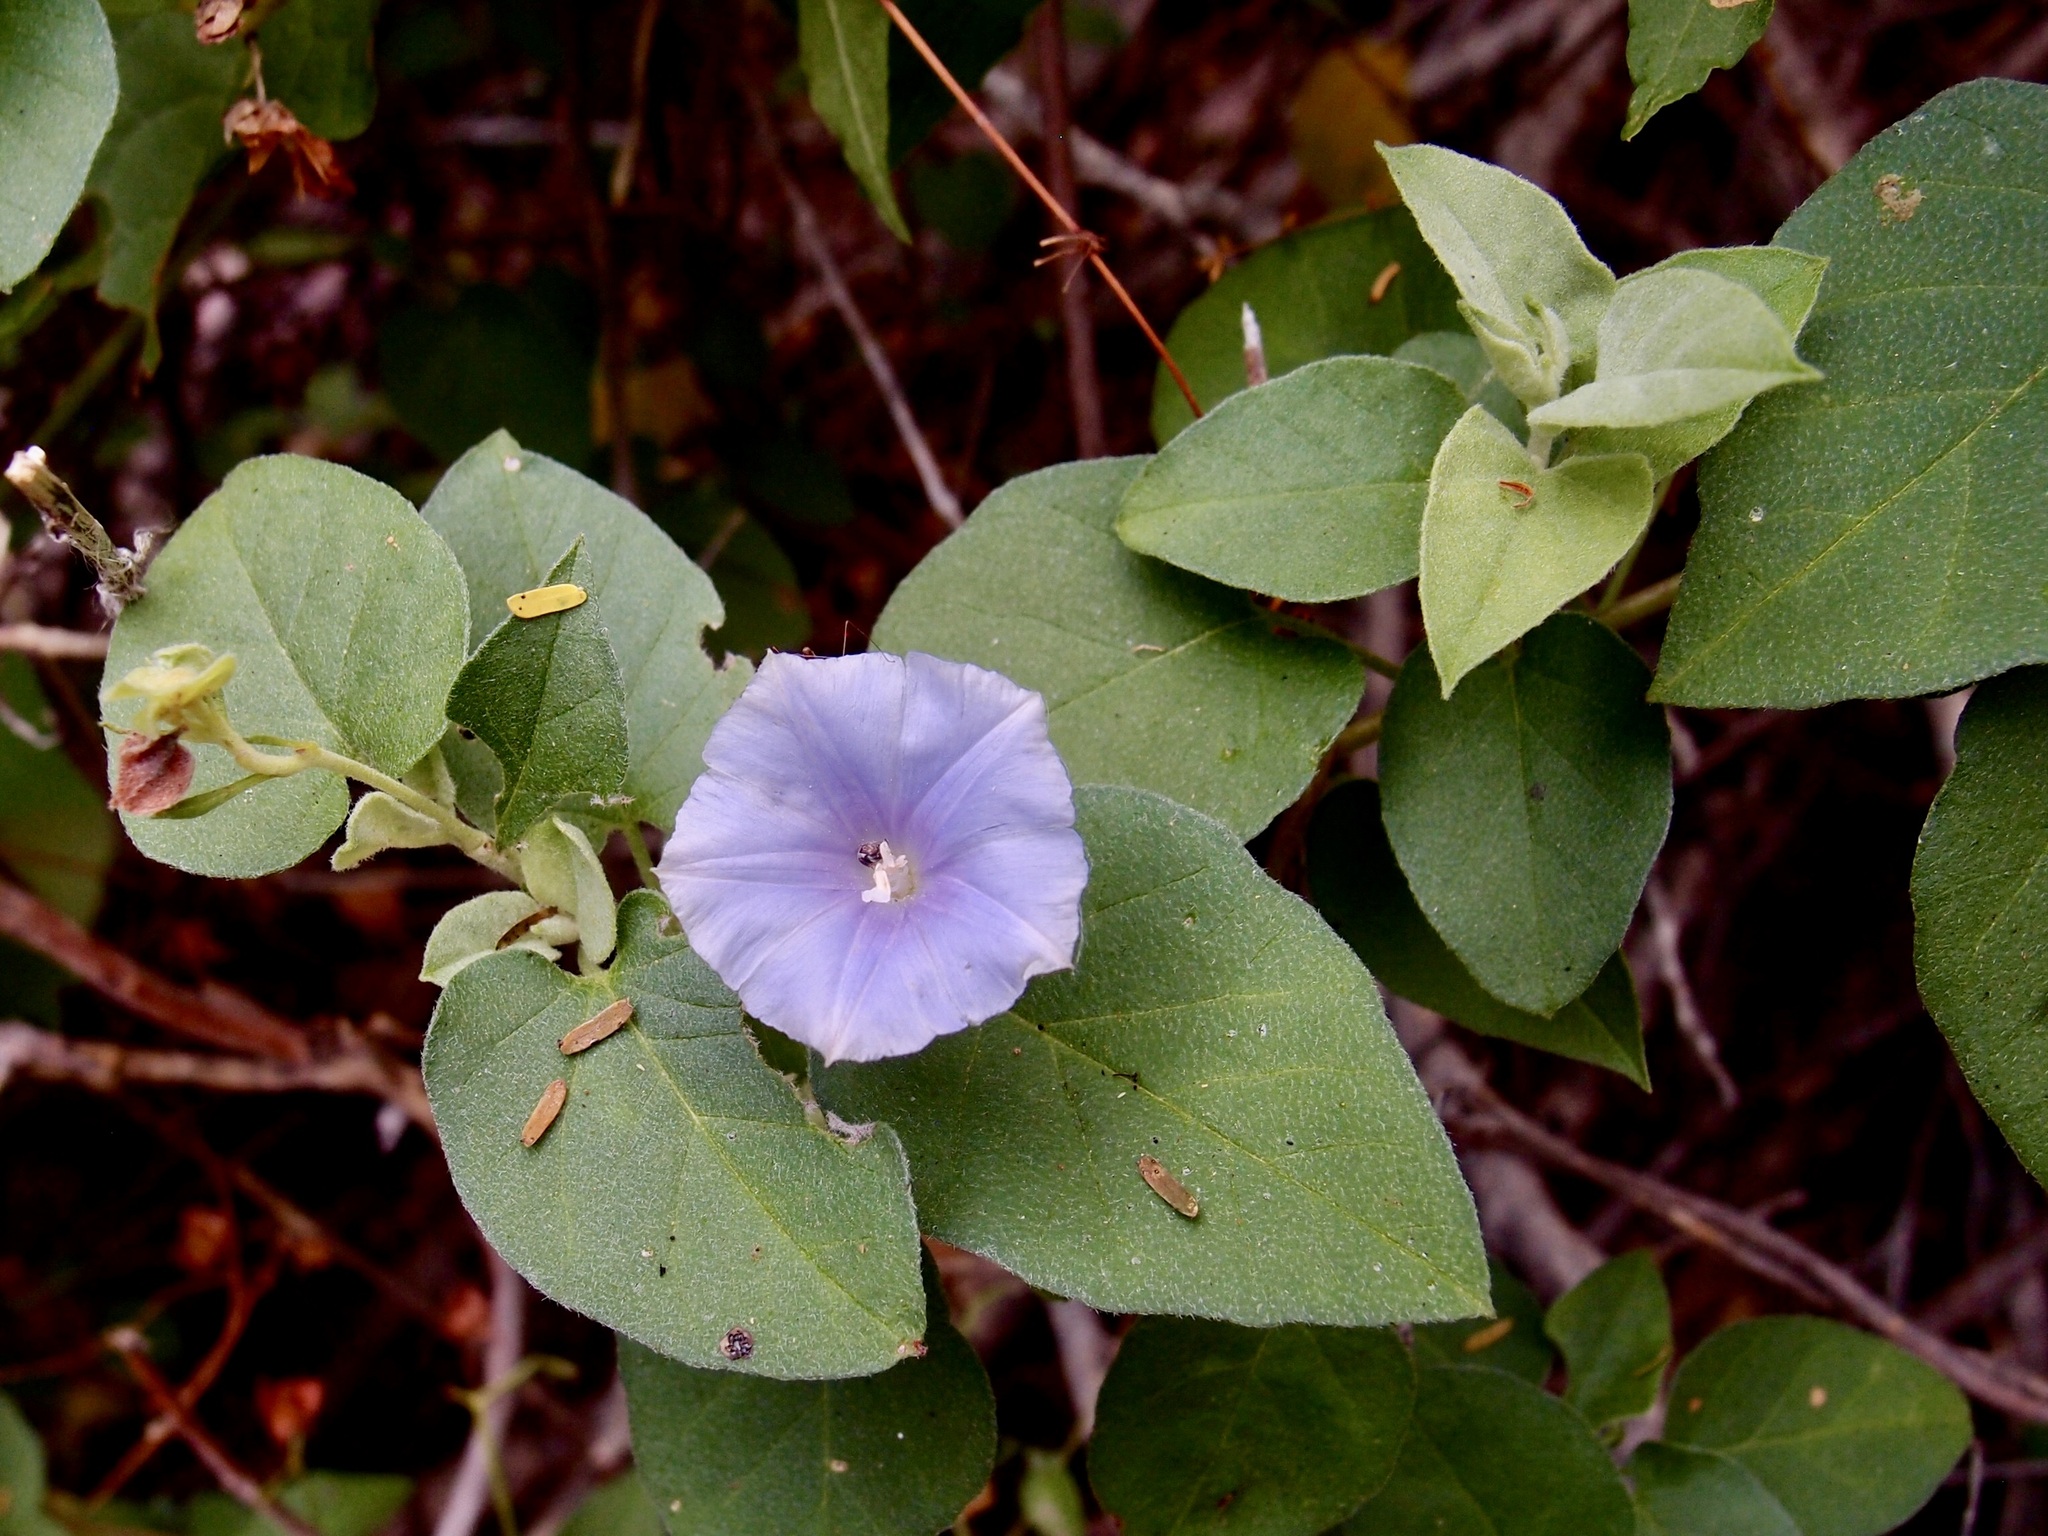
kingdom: Plantae
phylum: Tracheophyta
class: Magnoliopsida
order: Solanales
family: Convolvulaceae
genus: Jacquemontia
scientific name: Jacquemontia pringlei
